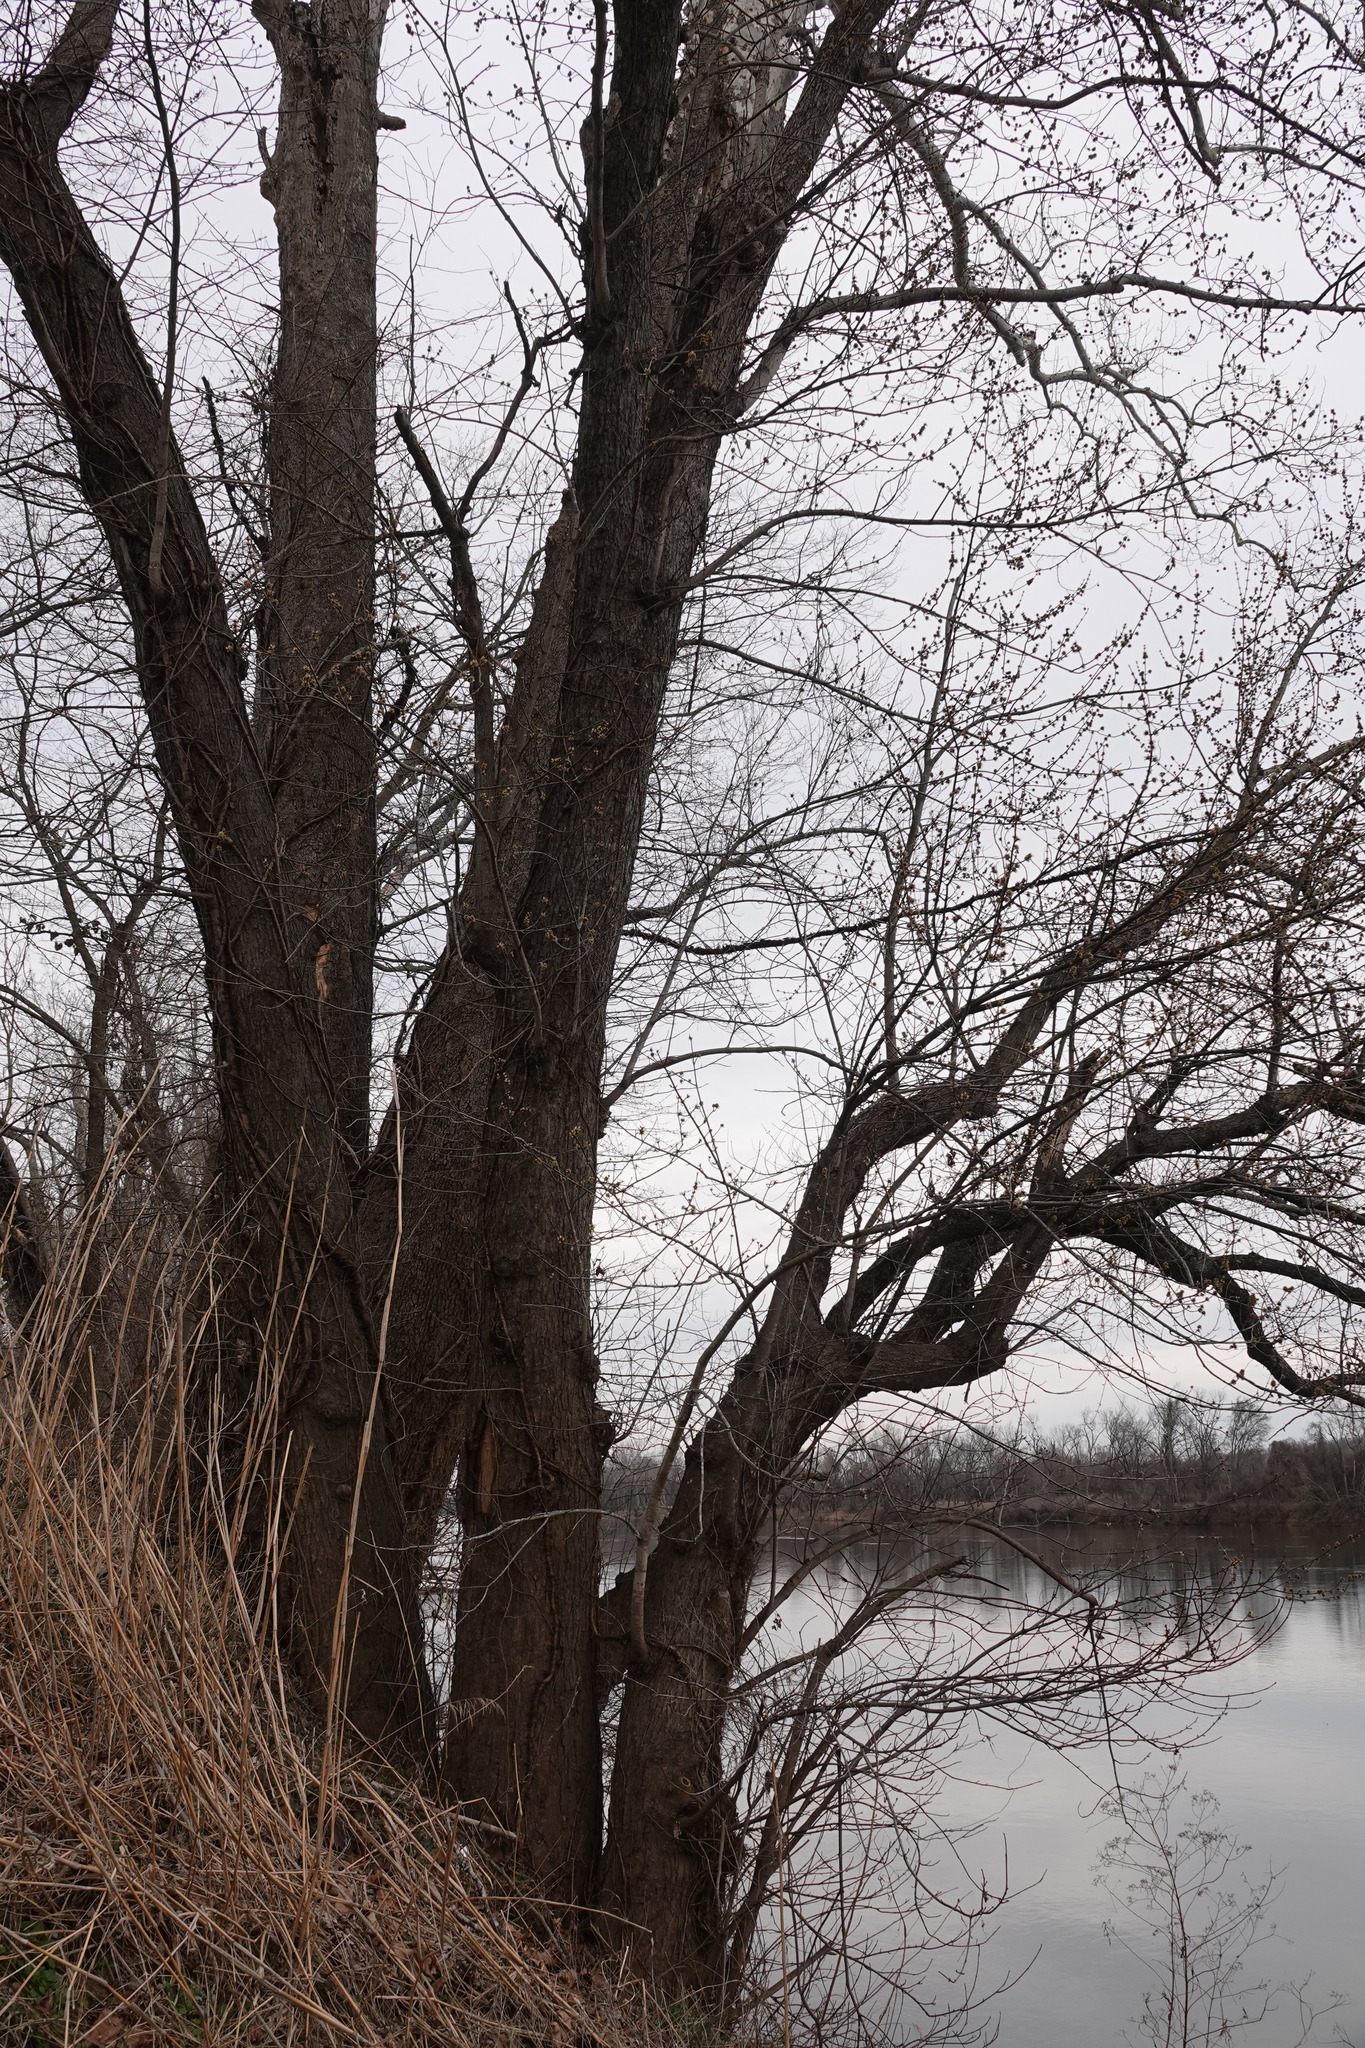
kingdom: Plantae
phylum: Tracheophyta
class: Magnoliopsida
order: Sapindales
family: Sapindaceae
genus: Acer
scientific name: Acer rubrum
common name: Red maple
